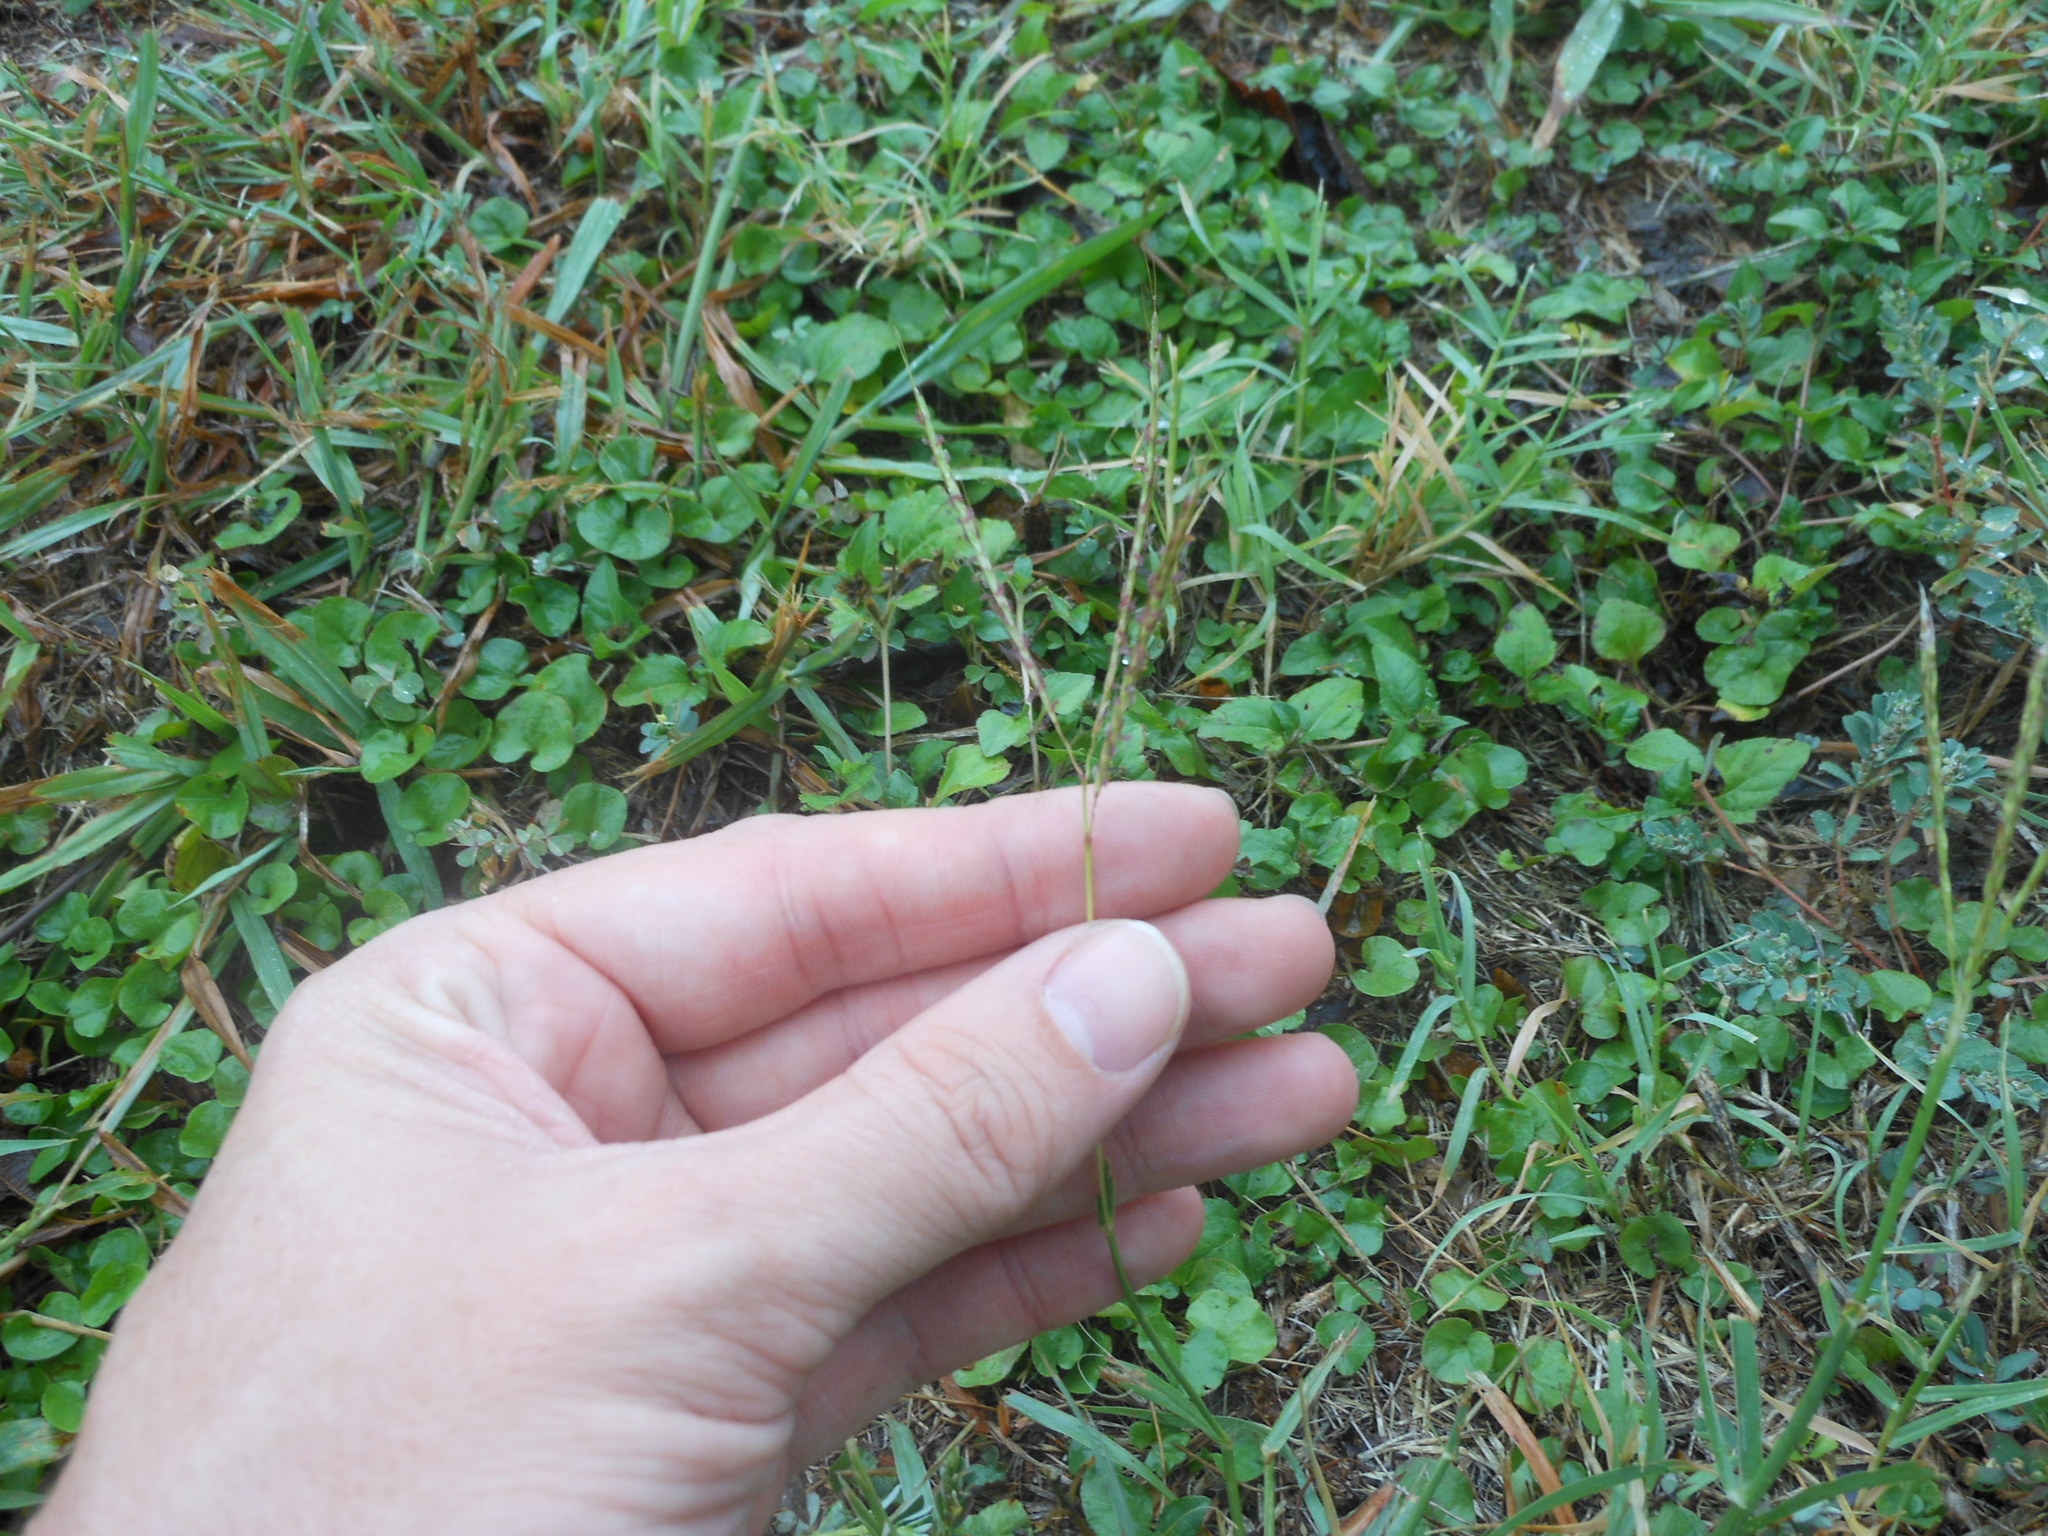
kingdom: Plantae
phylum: Tracheophyta
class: Liliopsida
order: Poales
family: Poaceae
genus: Bothriochloa
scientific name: Bothriochloa ischaemum
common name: Yellow bluestem
